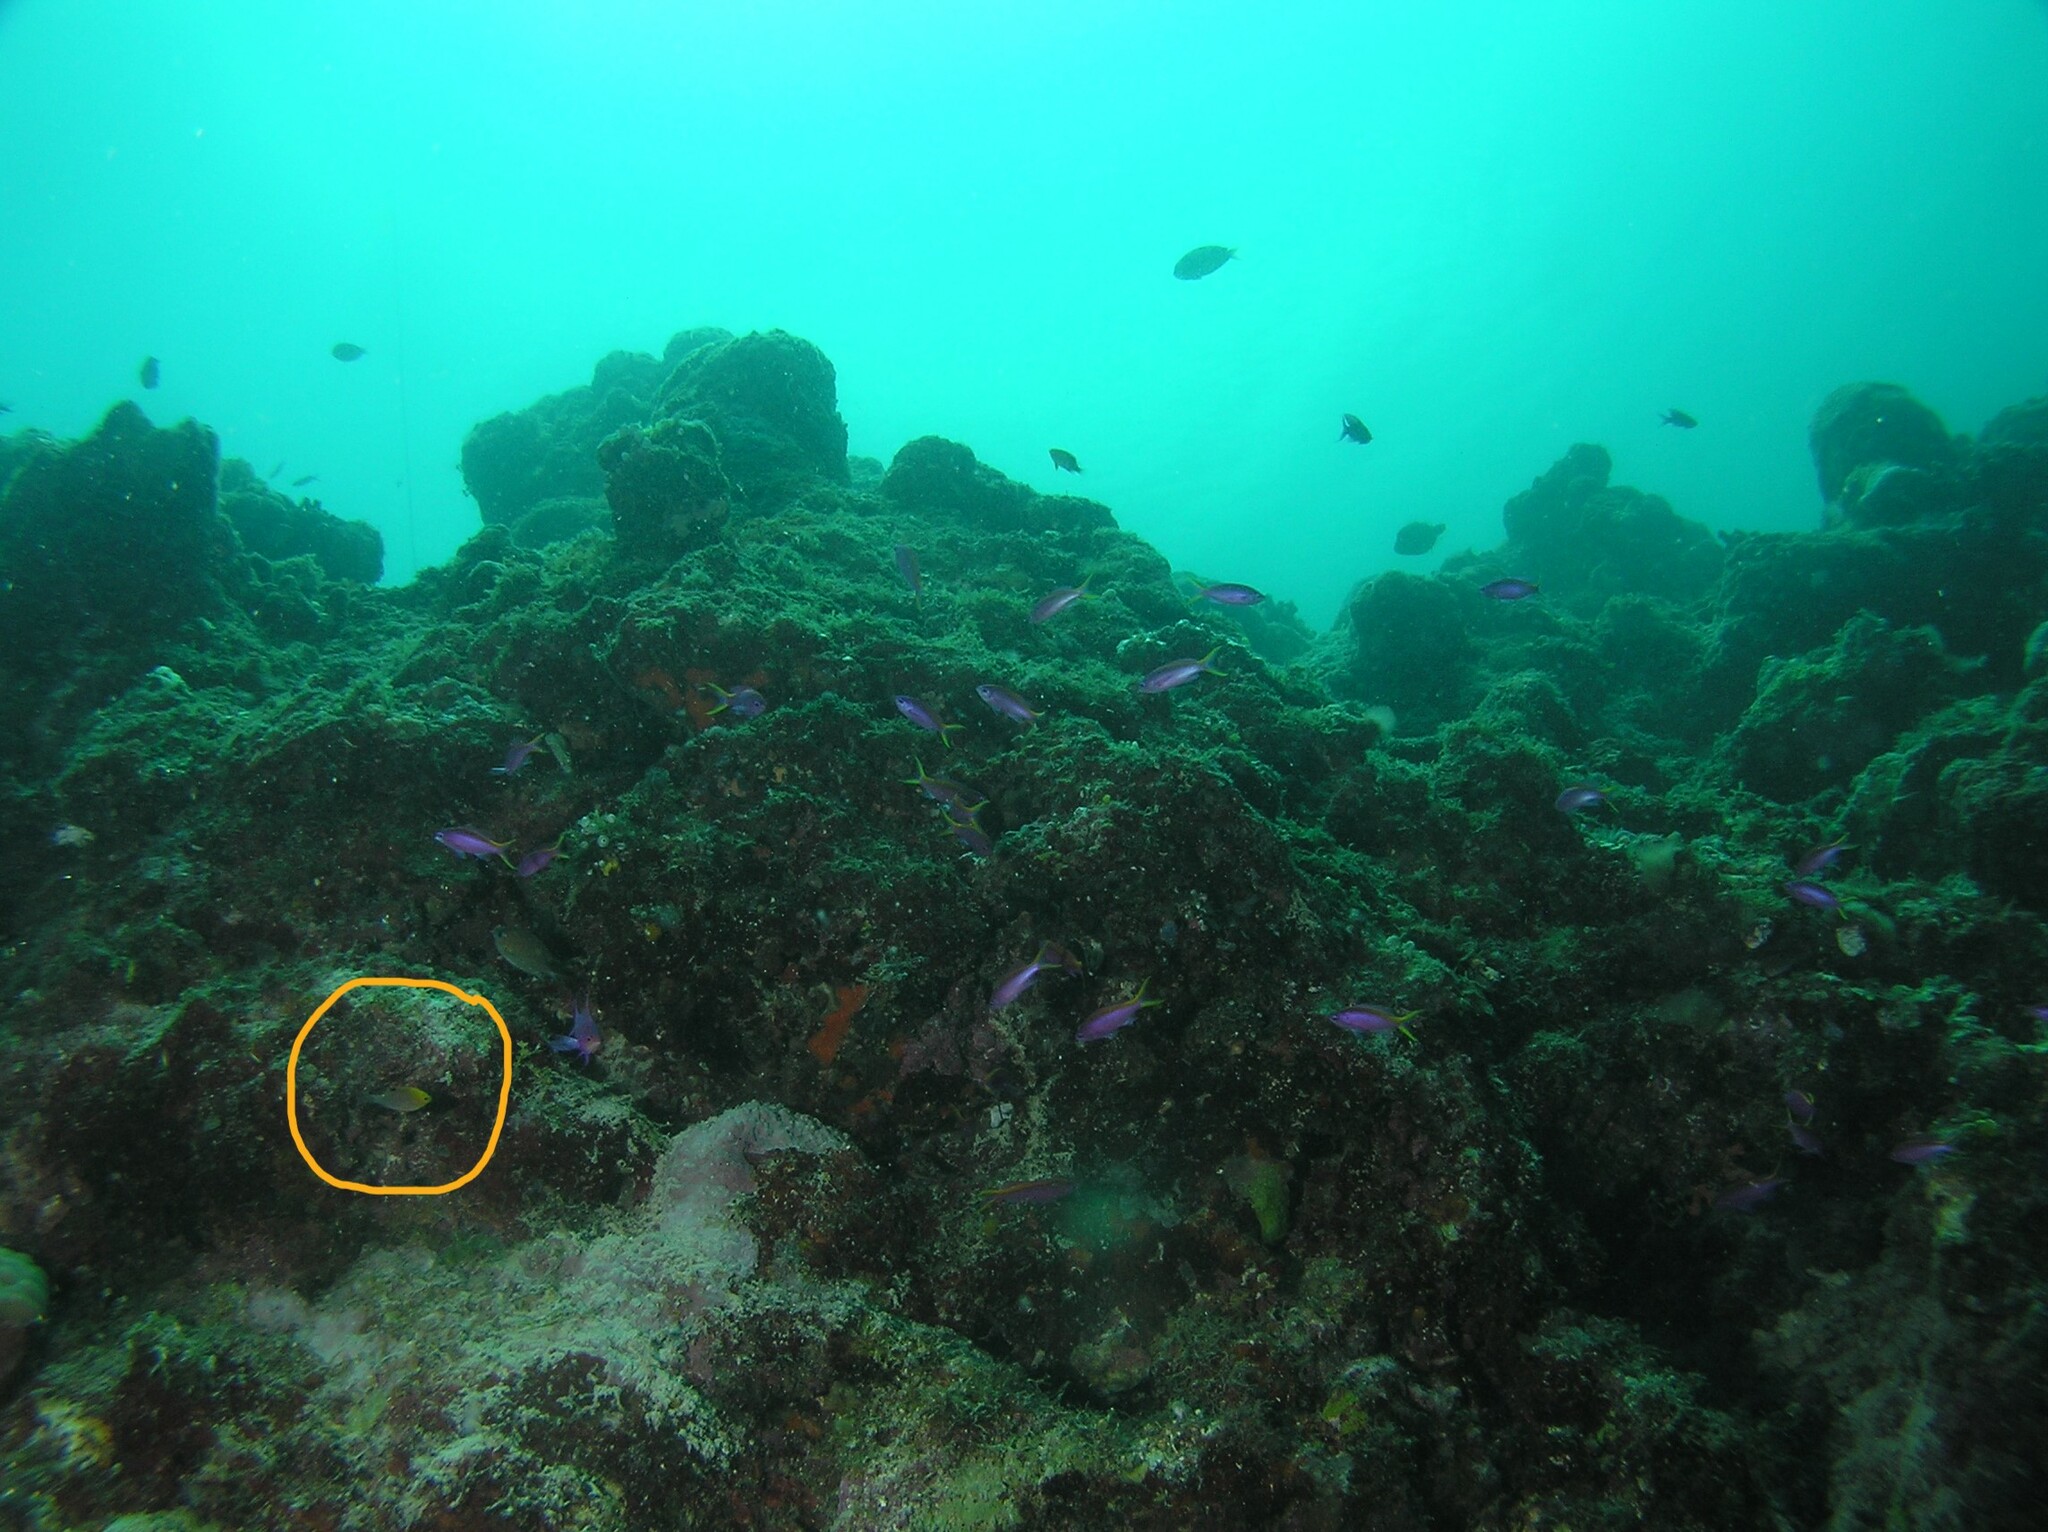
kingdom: Animalia
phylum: Chordata
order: Perciformes
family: Pomacentridae
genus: Chrysiptera
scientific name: Chrysiptera talboti
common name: Talbot's demoiselle
